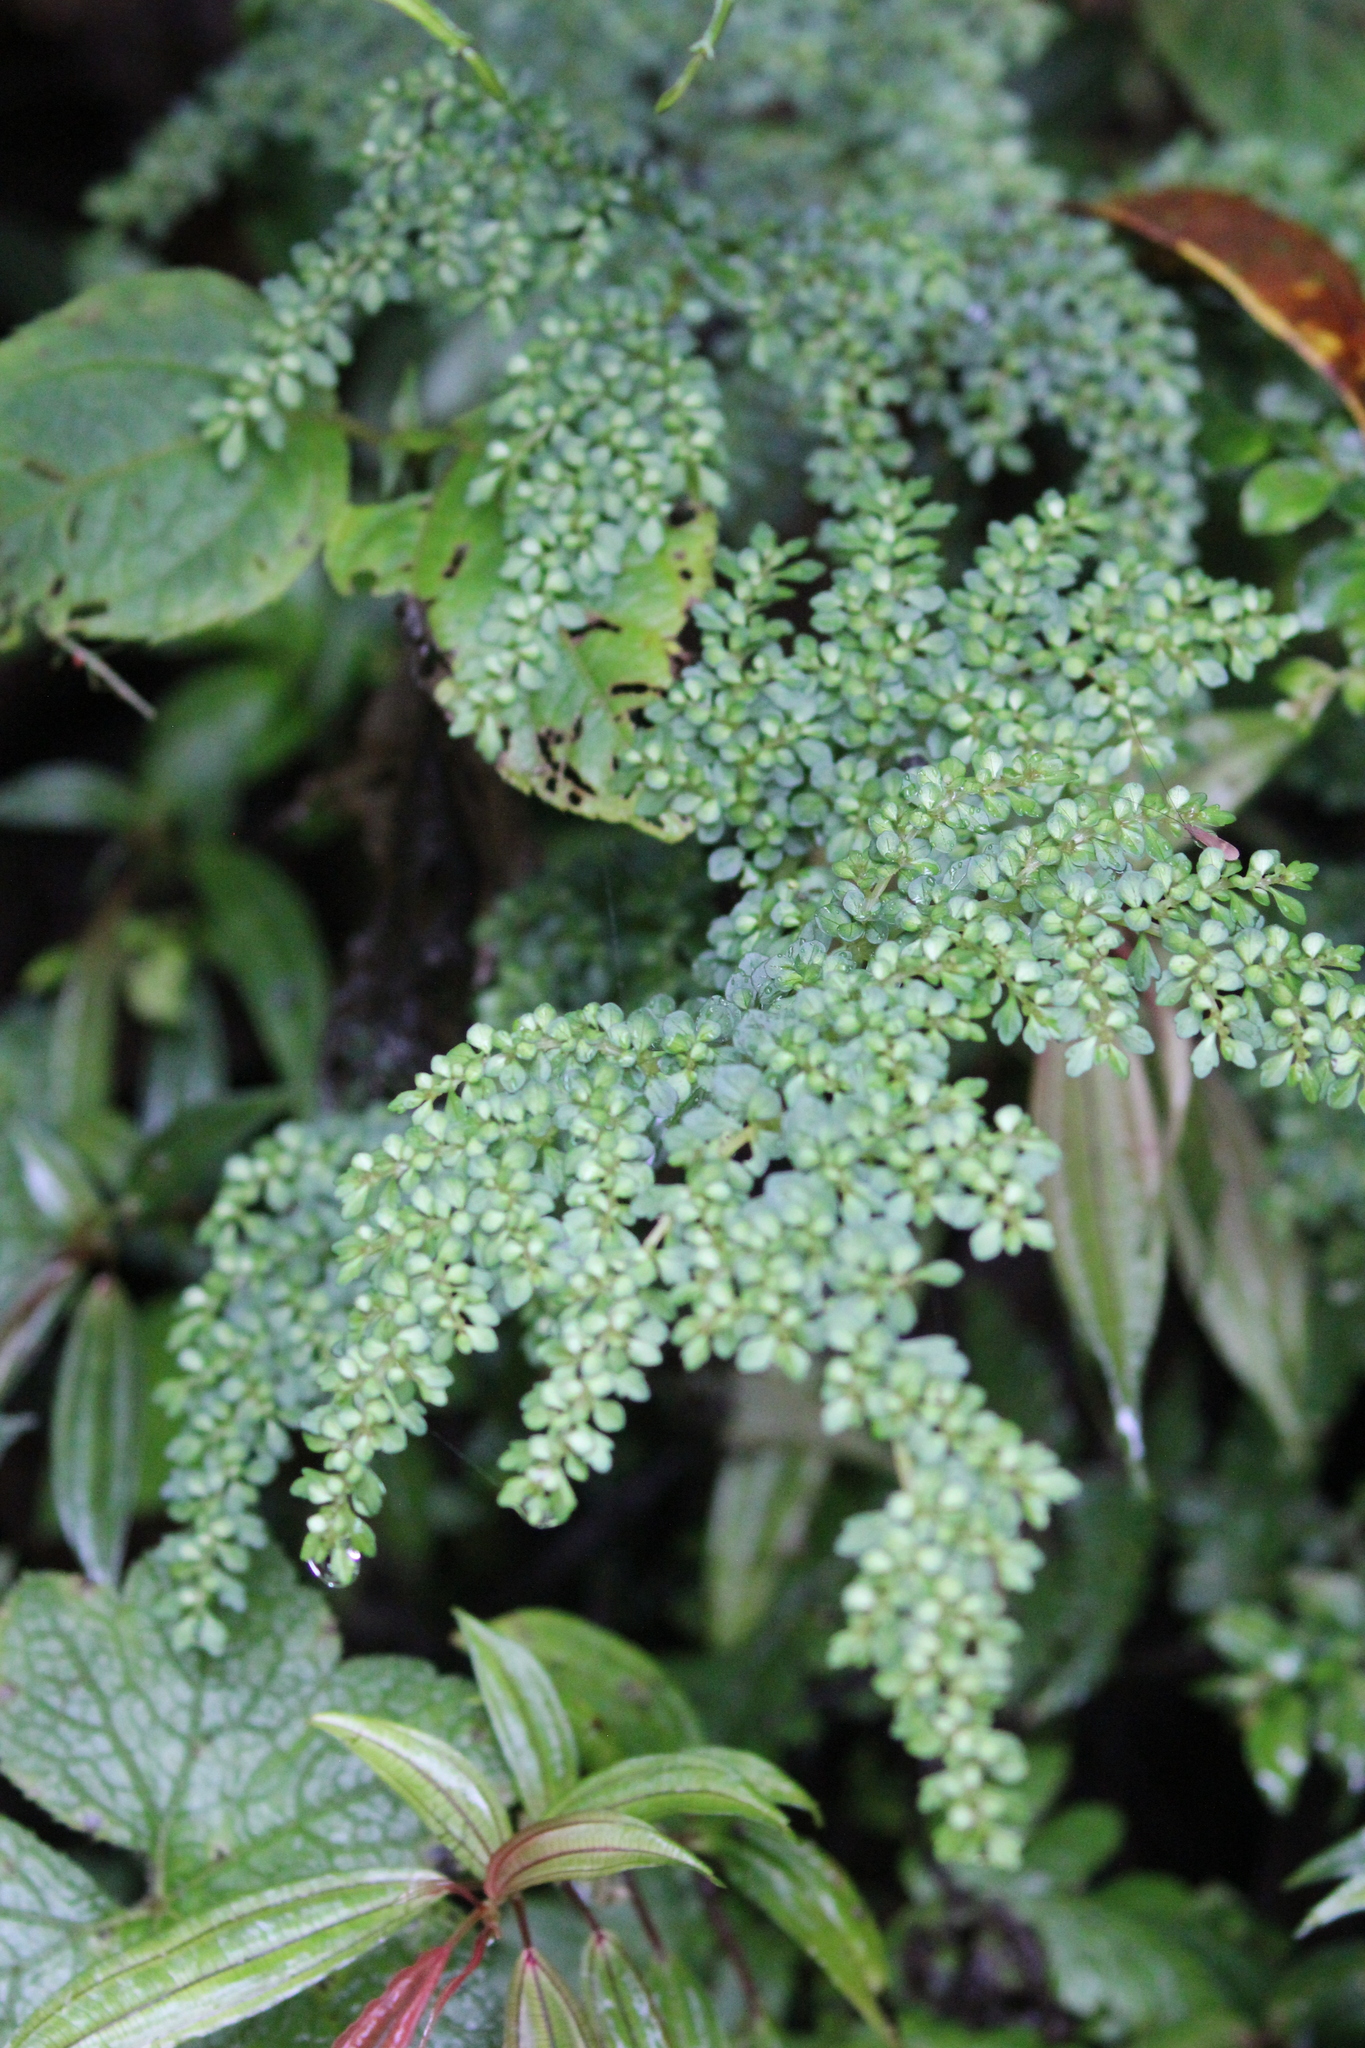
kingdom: Plantae
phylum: Tracheophyta
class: Magnoliopsida
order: Rosales
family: Urticaceae
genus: Pilea
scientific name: Pilea microphylla
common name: Artillery-plant
